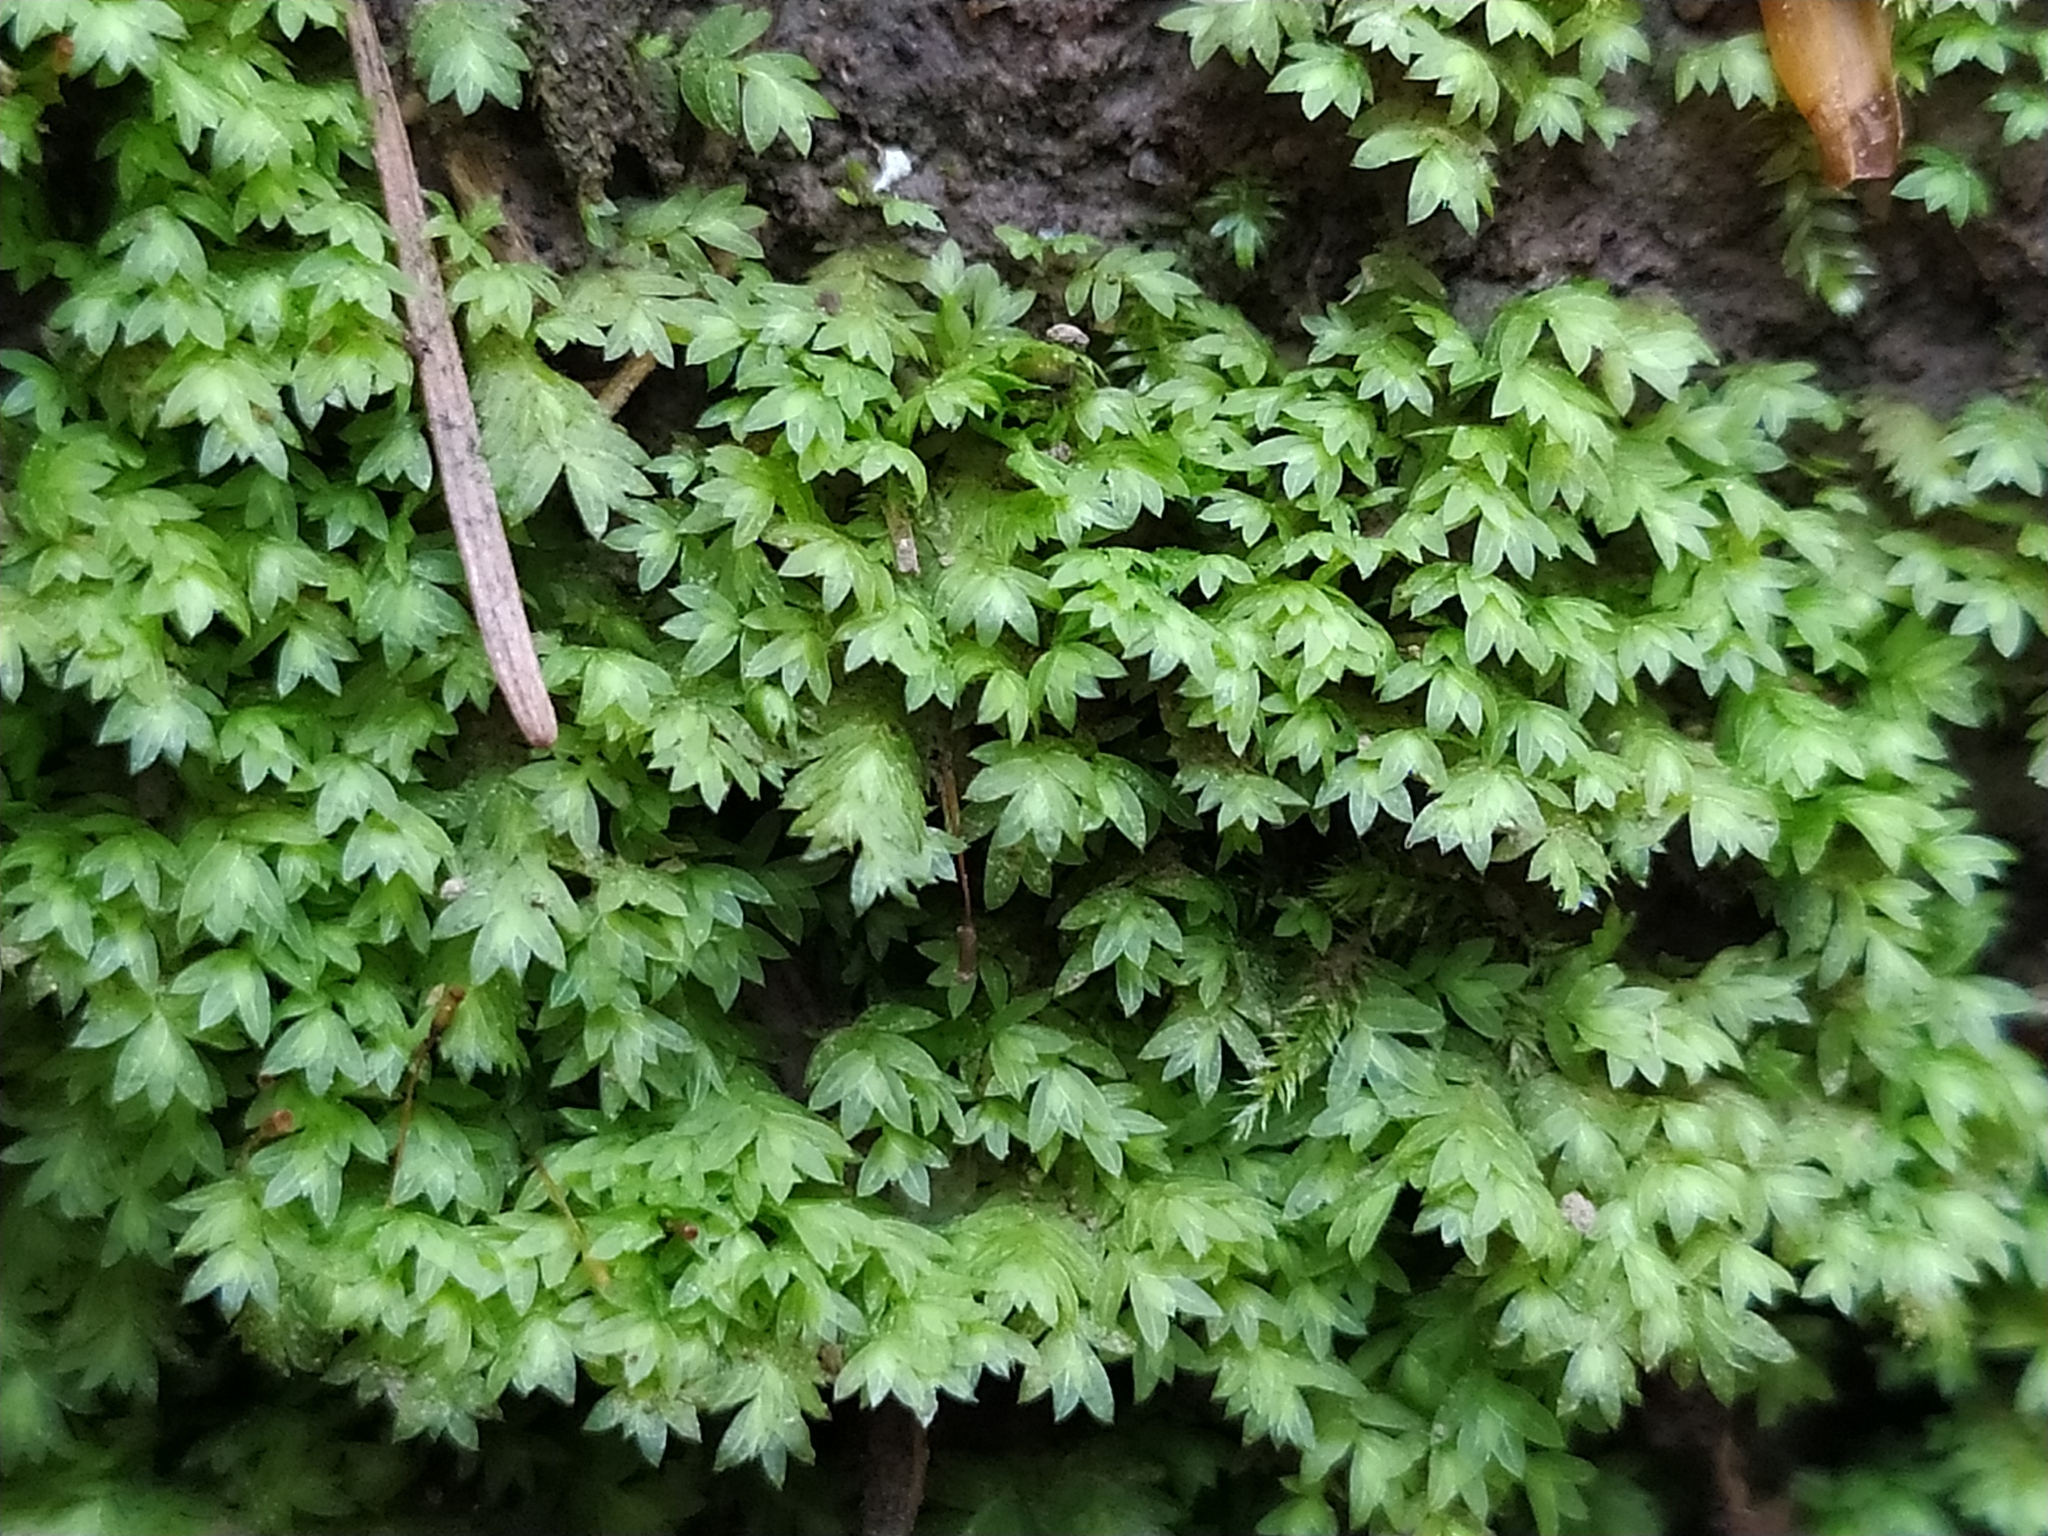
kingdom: Plantae
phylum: Bryophyta
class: Bryopsida
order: Dicranales
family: Fissidentaceae
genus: Fissidens
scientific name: Fissidens bryoides
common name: Lesser pocket moss
